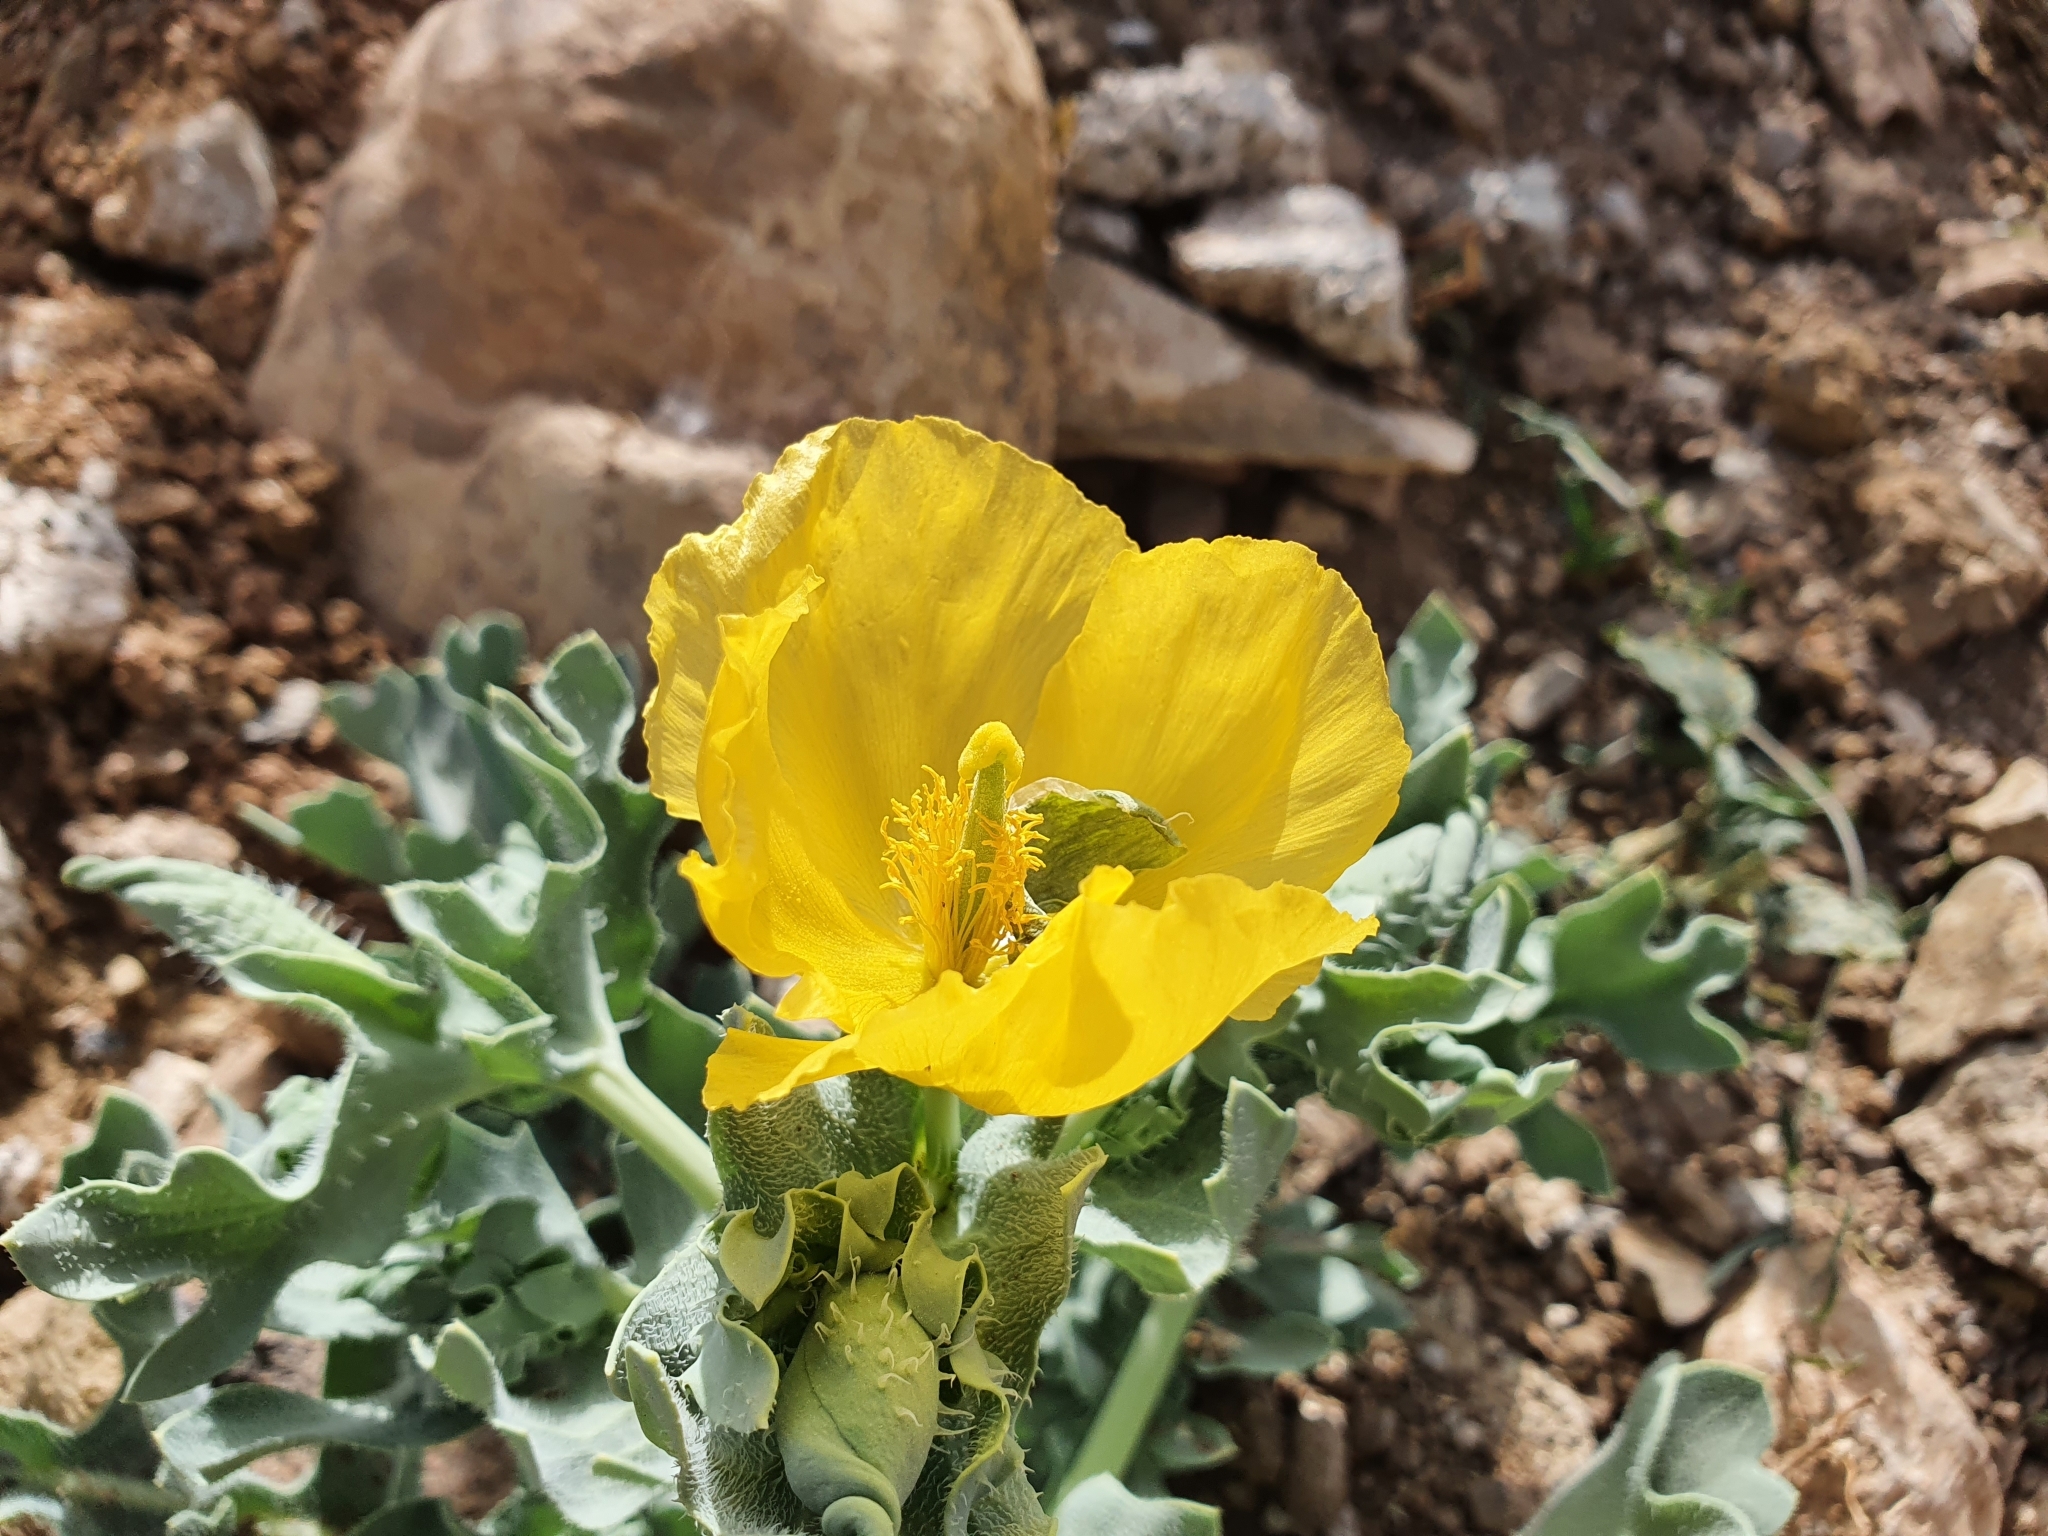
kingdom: Plantae
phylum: Tracheophyta
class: Magnoliopsida
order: Ranunculales
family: Papaveraceae
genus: Glaucium
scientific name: Glaucium flavum
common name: Yellow horned-poppy
